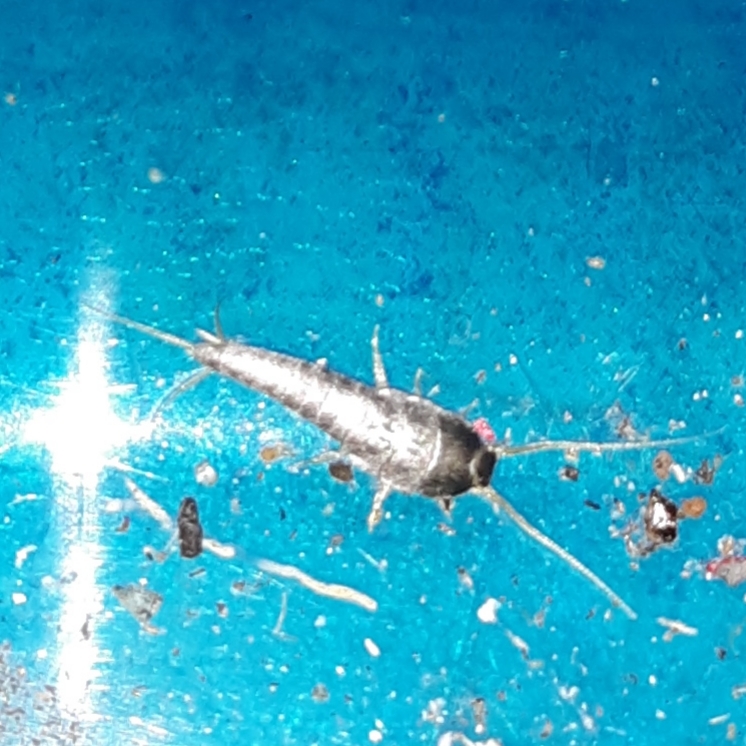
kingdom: Animalia
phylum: Arthropoda
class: Insecta
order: Zygentoma
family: Lepismatidae
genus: Lepisma
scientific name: Lepisma saccharinum
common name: Silverfish
